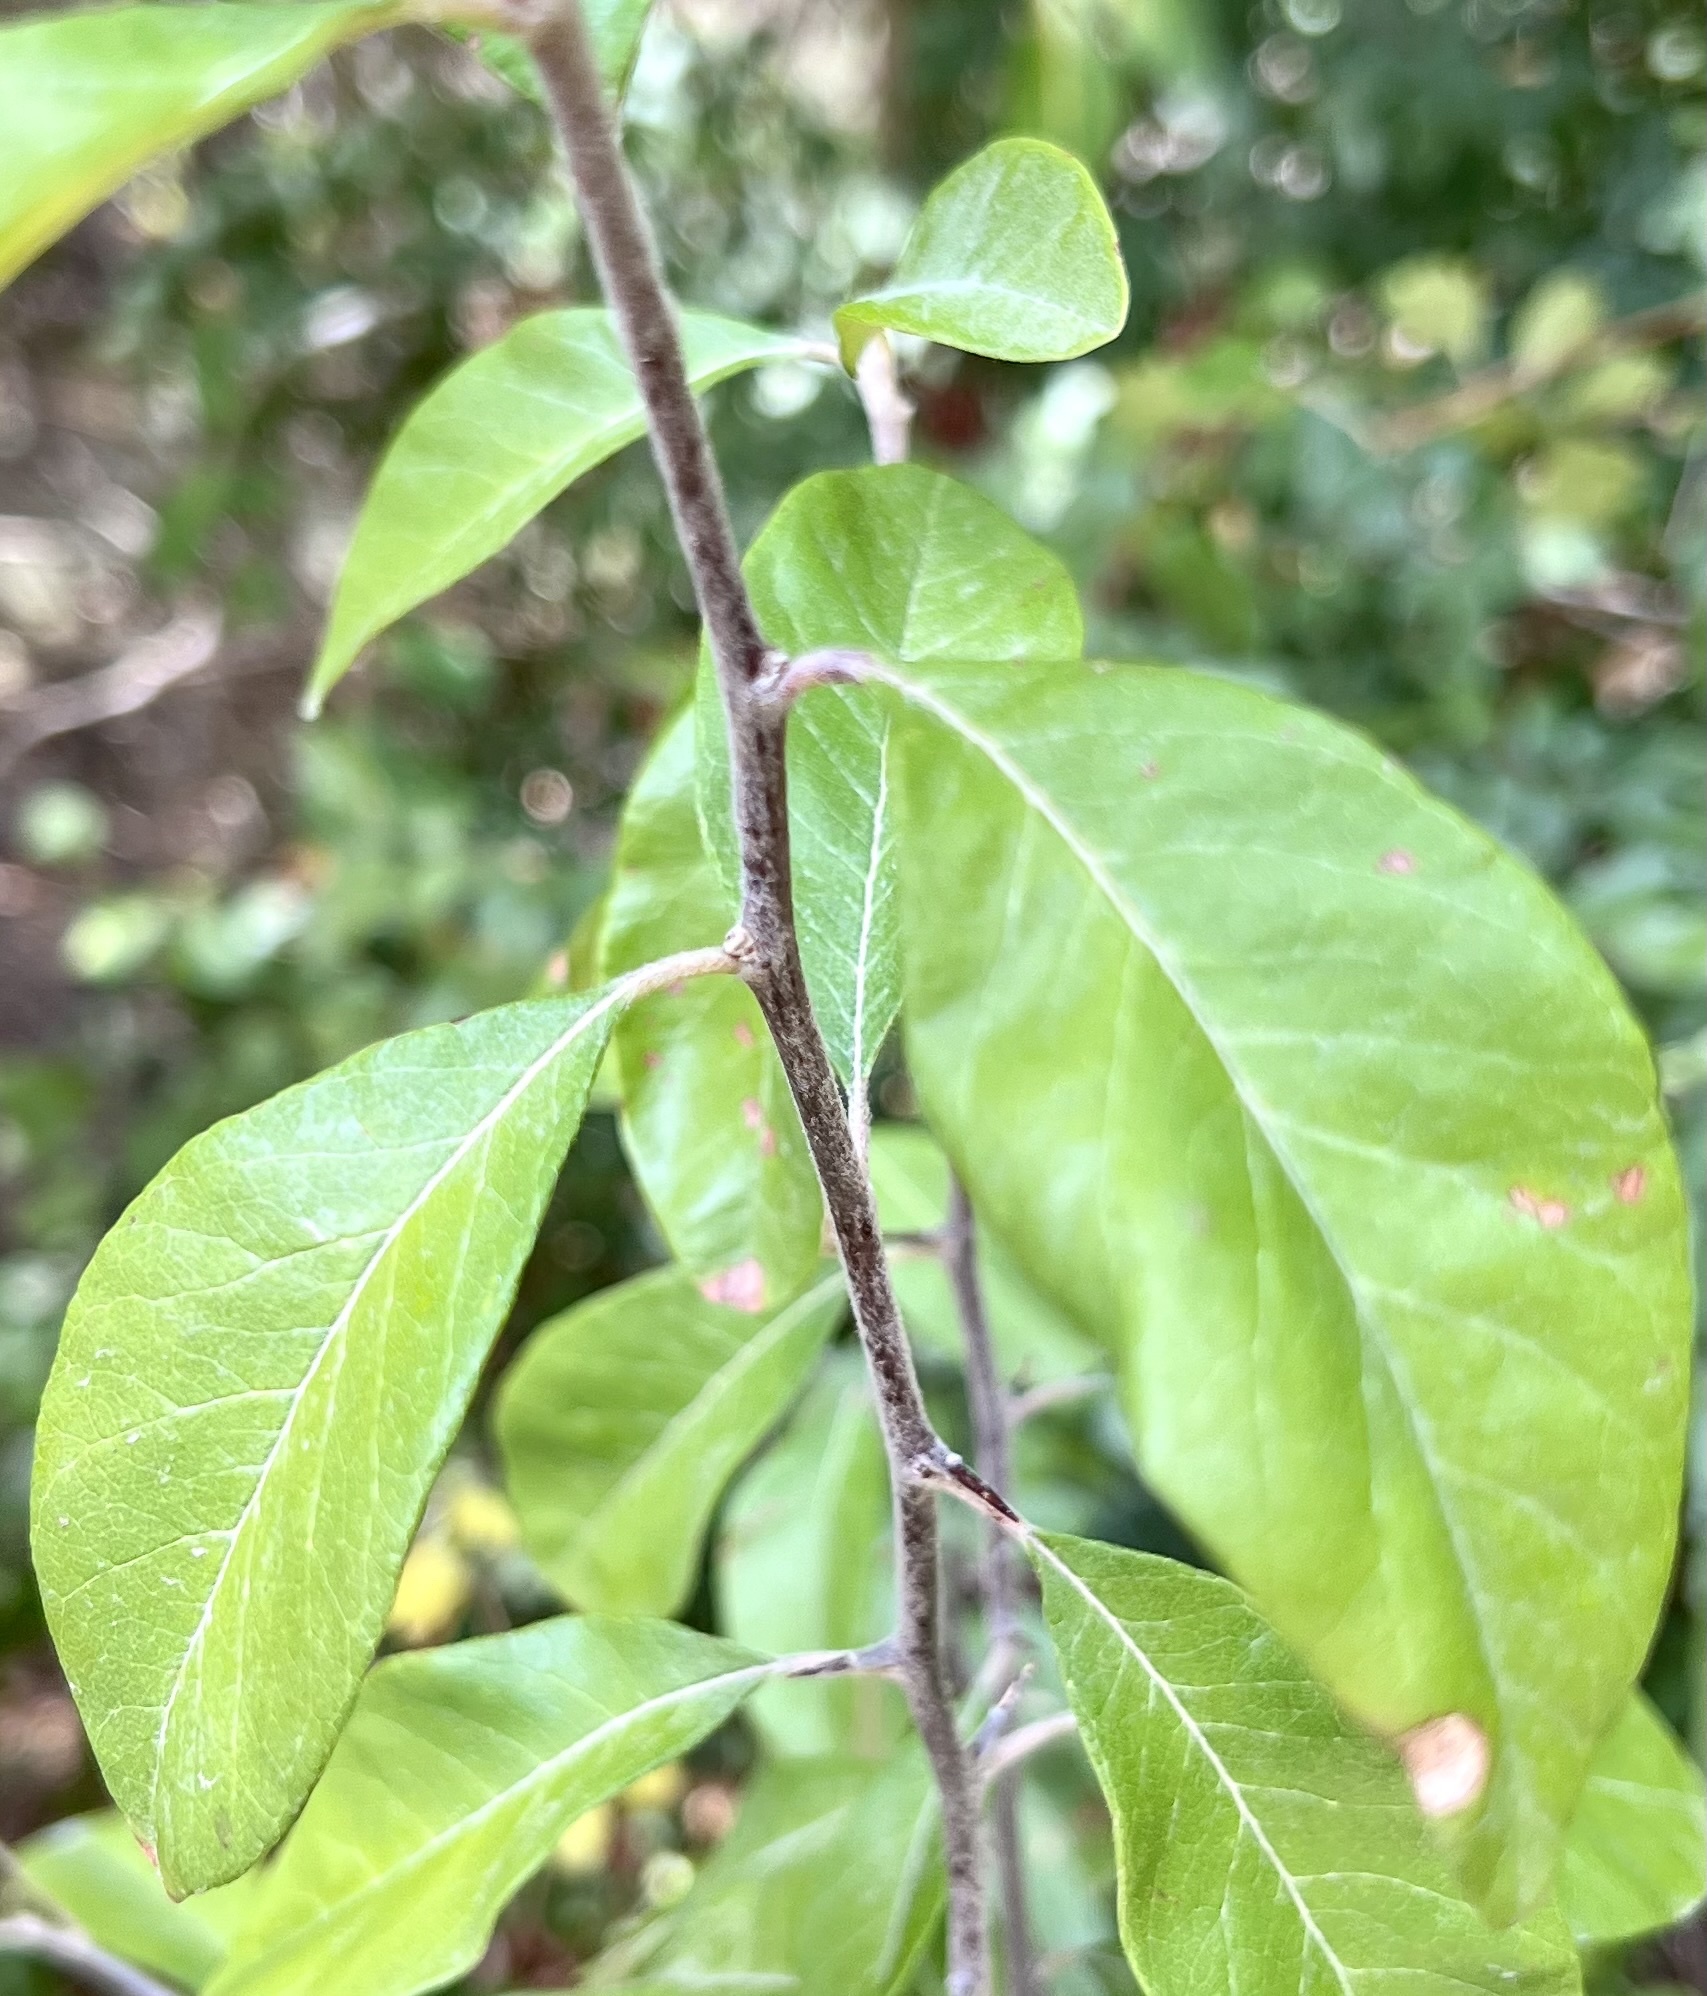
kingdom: Plantae
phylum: Tracheophyta
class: Magnoliopsida
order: Ericales
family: Sapotaceae
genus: Sideroxylon
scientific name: Sideroxylon lanuginosum
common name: Chittamwood
